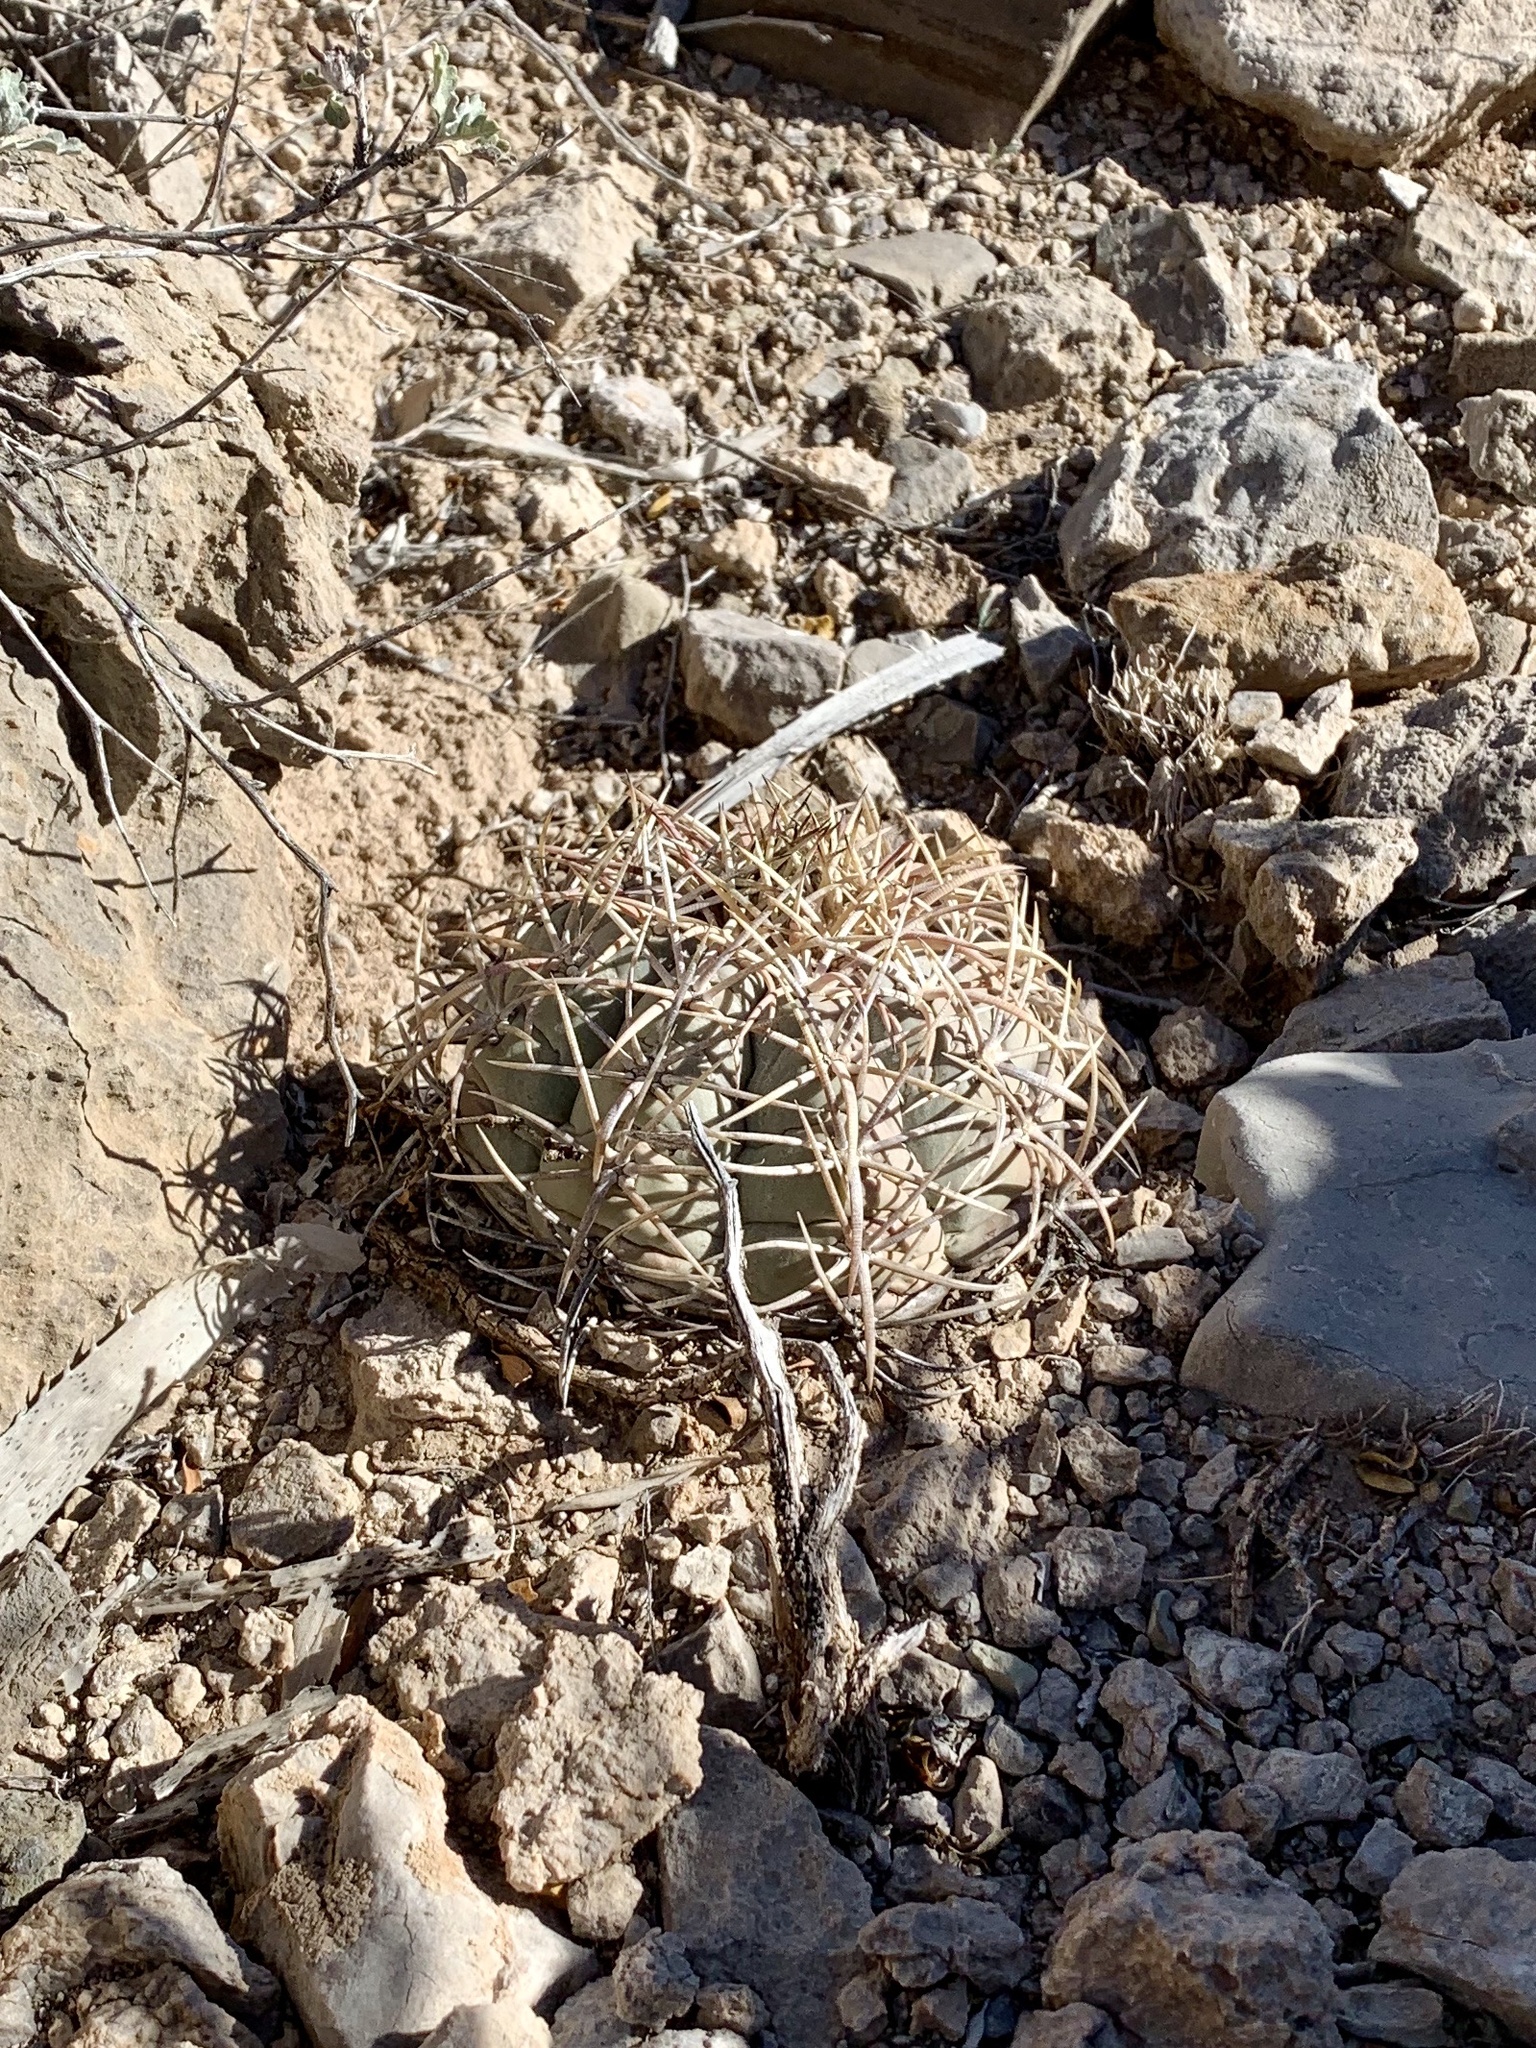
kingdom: Plantae
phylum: Tracheophyta
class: Magnoliopsida
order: Caryophyllales
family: Cactaceae
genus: Echinocactus
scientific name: Echinocactus horizonthalonius
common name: Devilshead
